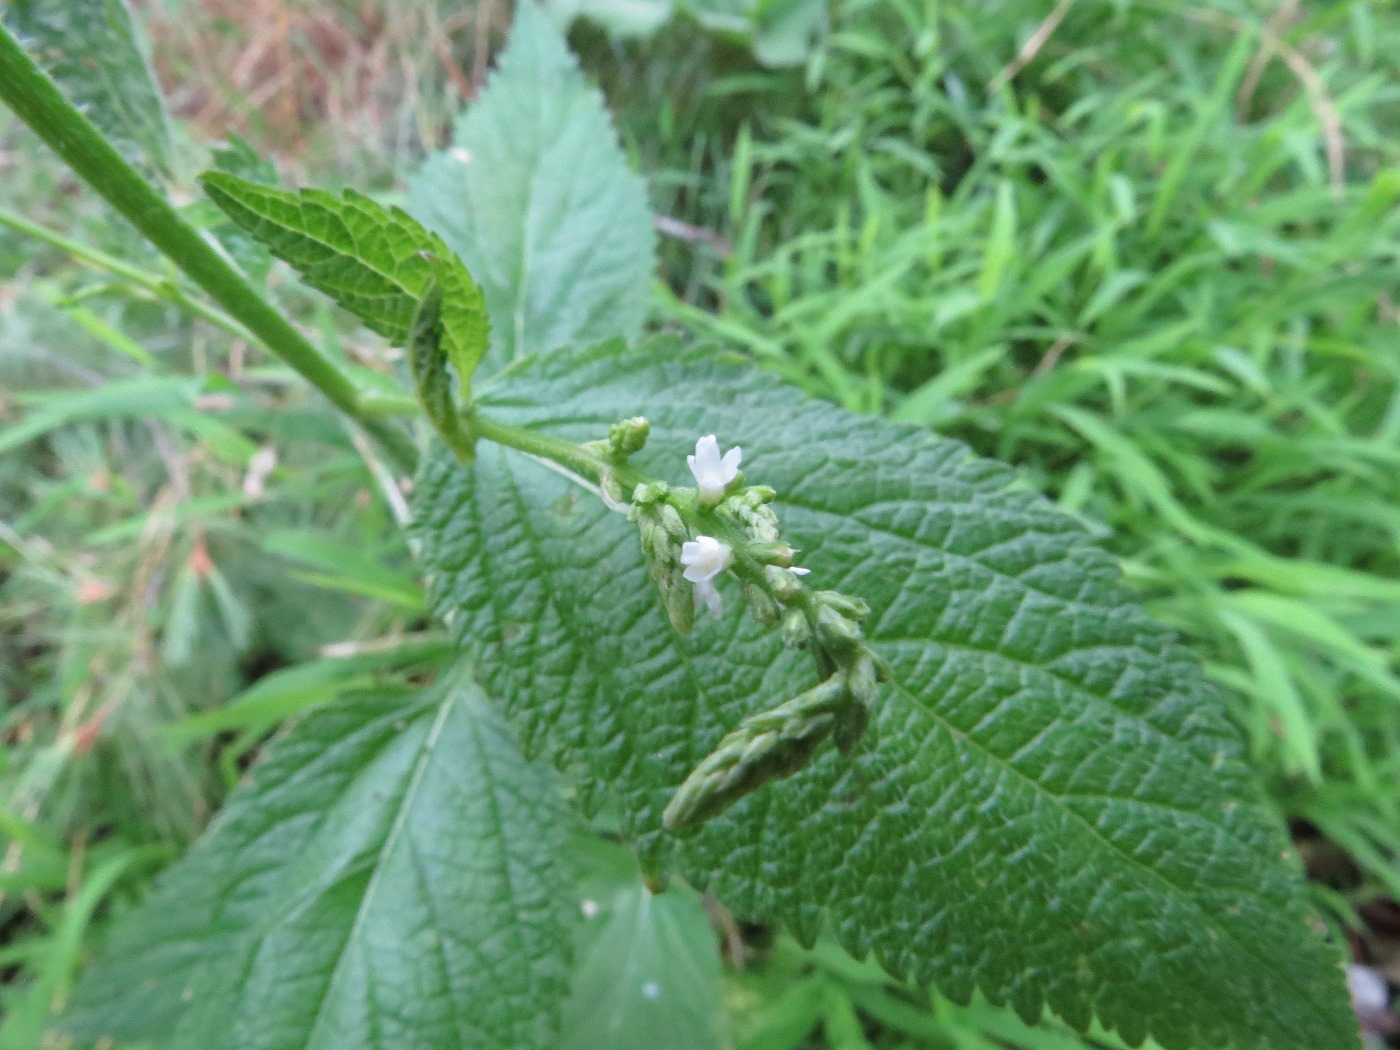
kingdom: Plantae
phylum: Tracheophyta
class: Magnoliopsida
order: Lamiales
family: Verbenaceae
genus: Verbena
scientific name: Verbena urticifolia
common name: Nettle-leaved vervain
